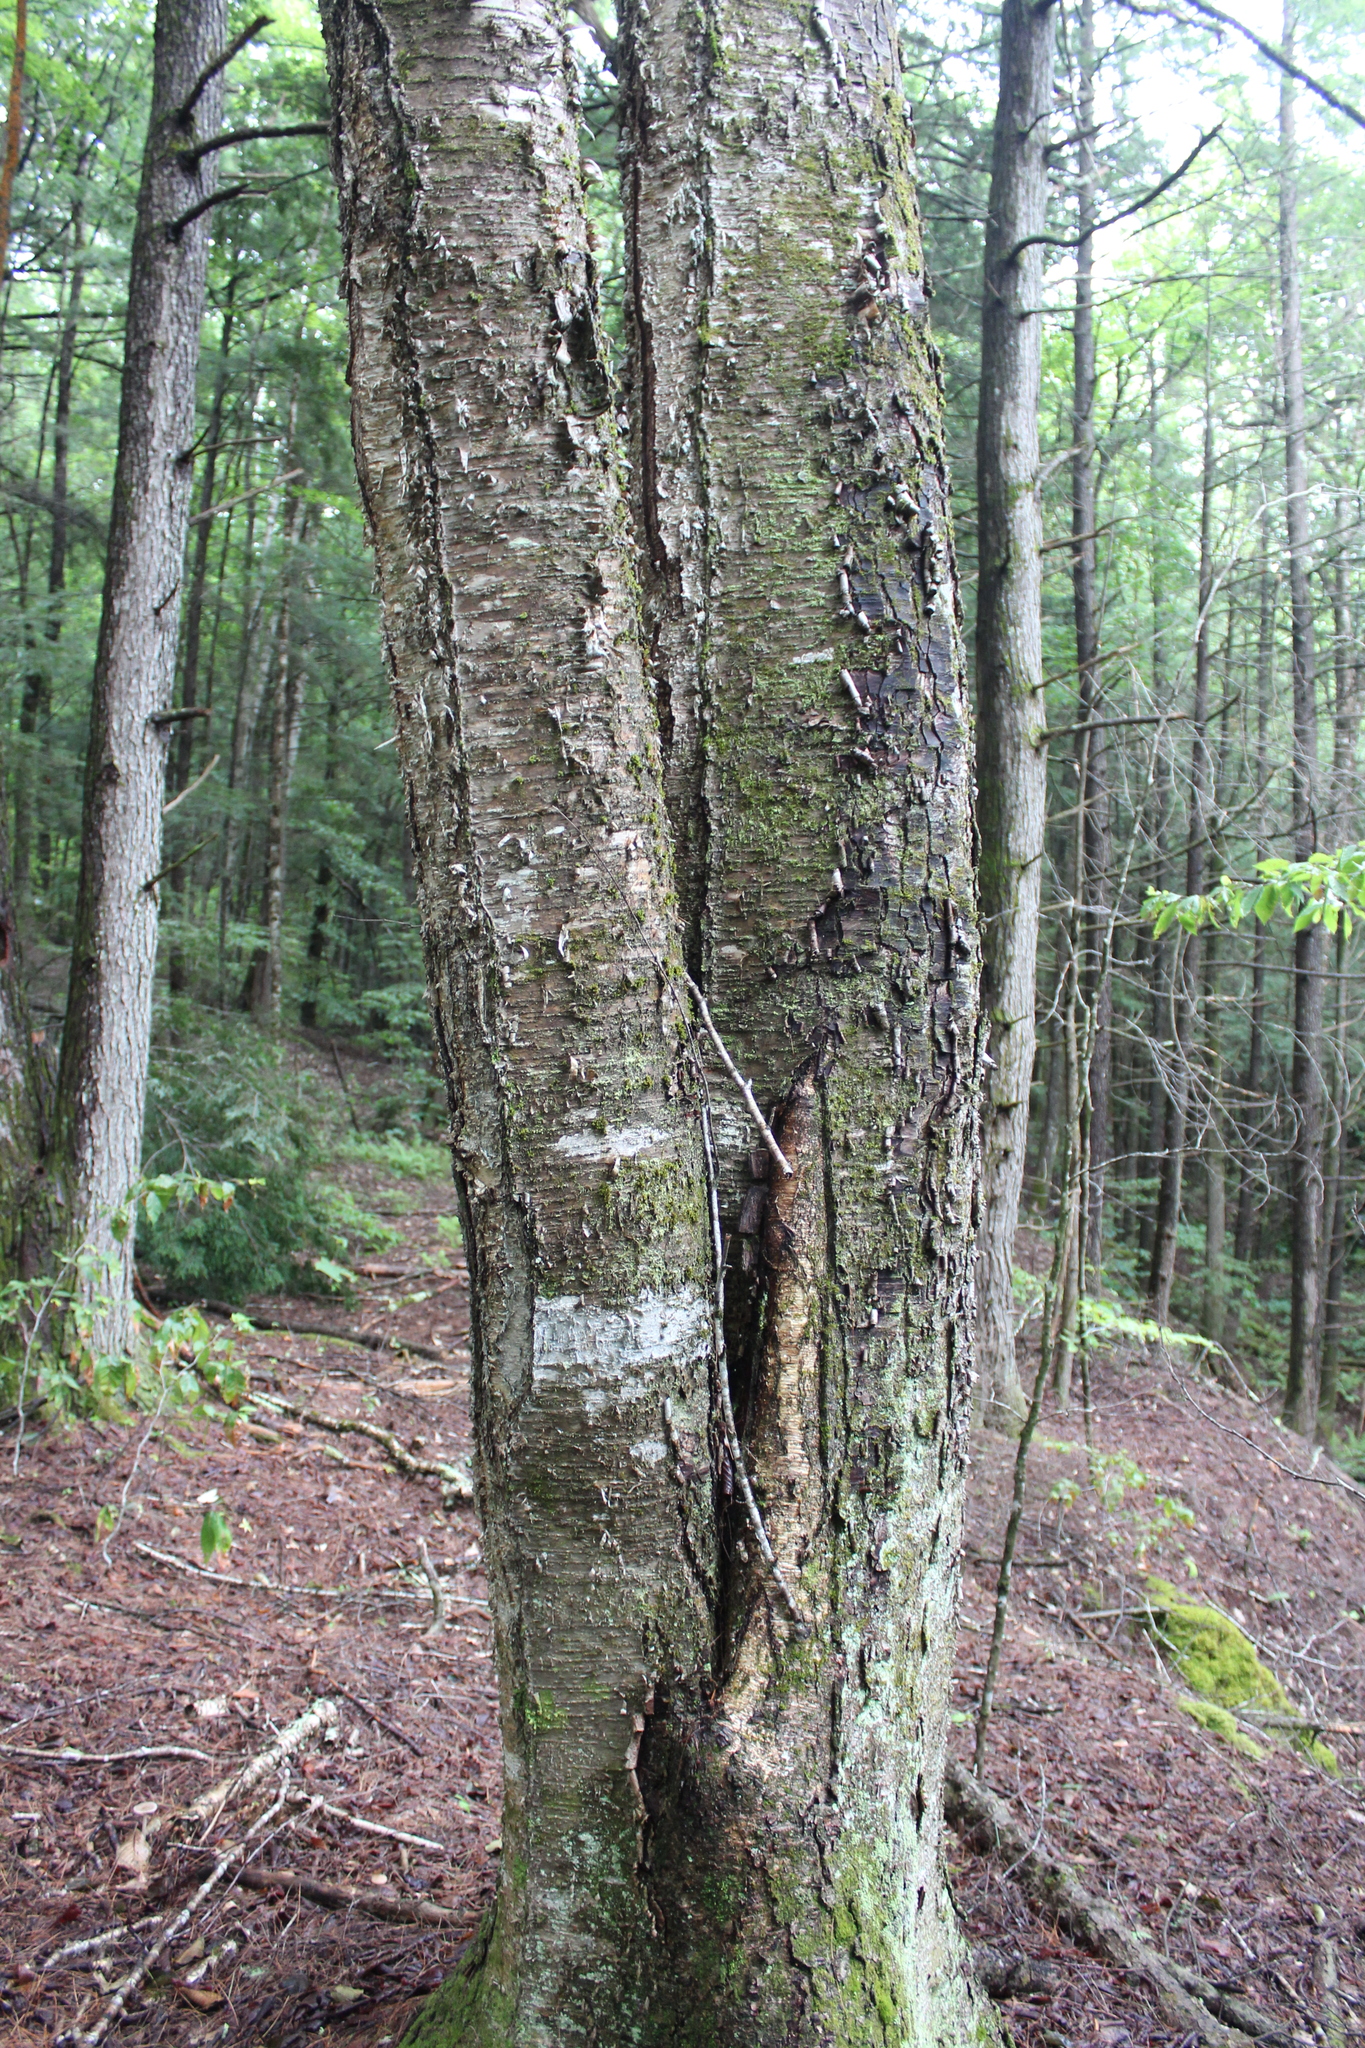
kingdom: Plantae
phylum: Tracheophyta
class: Magnoliopsida
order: Fagales
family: Betulaceae
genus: Betula
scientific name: Betula alleghaniensis
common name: Yellow birch
